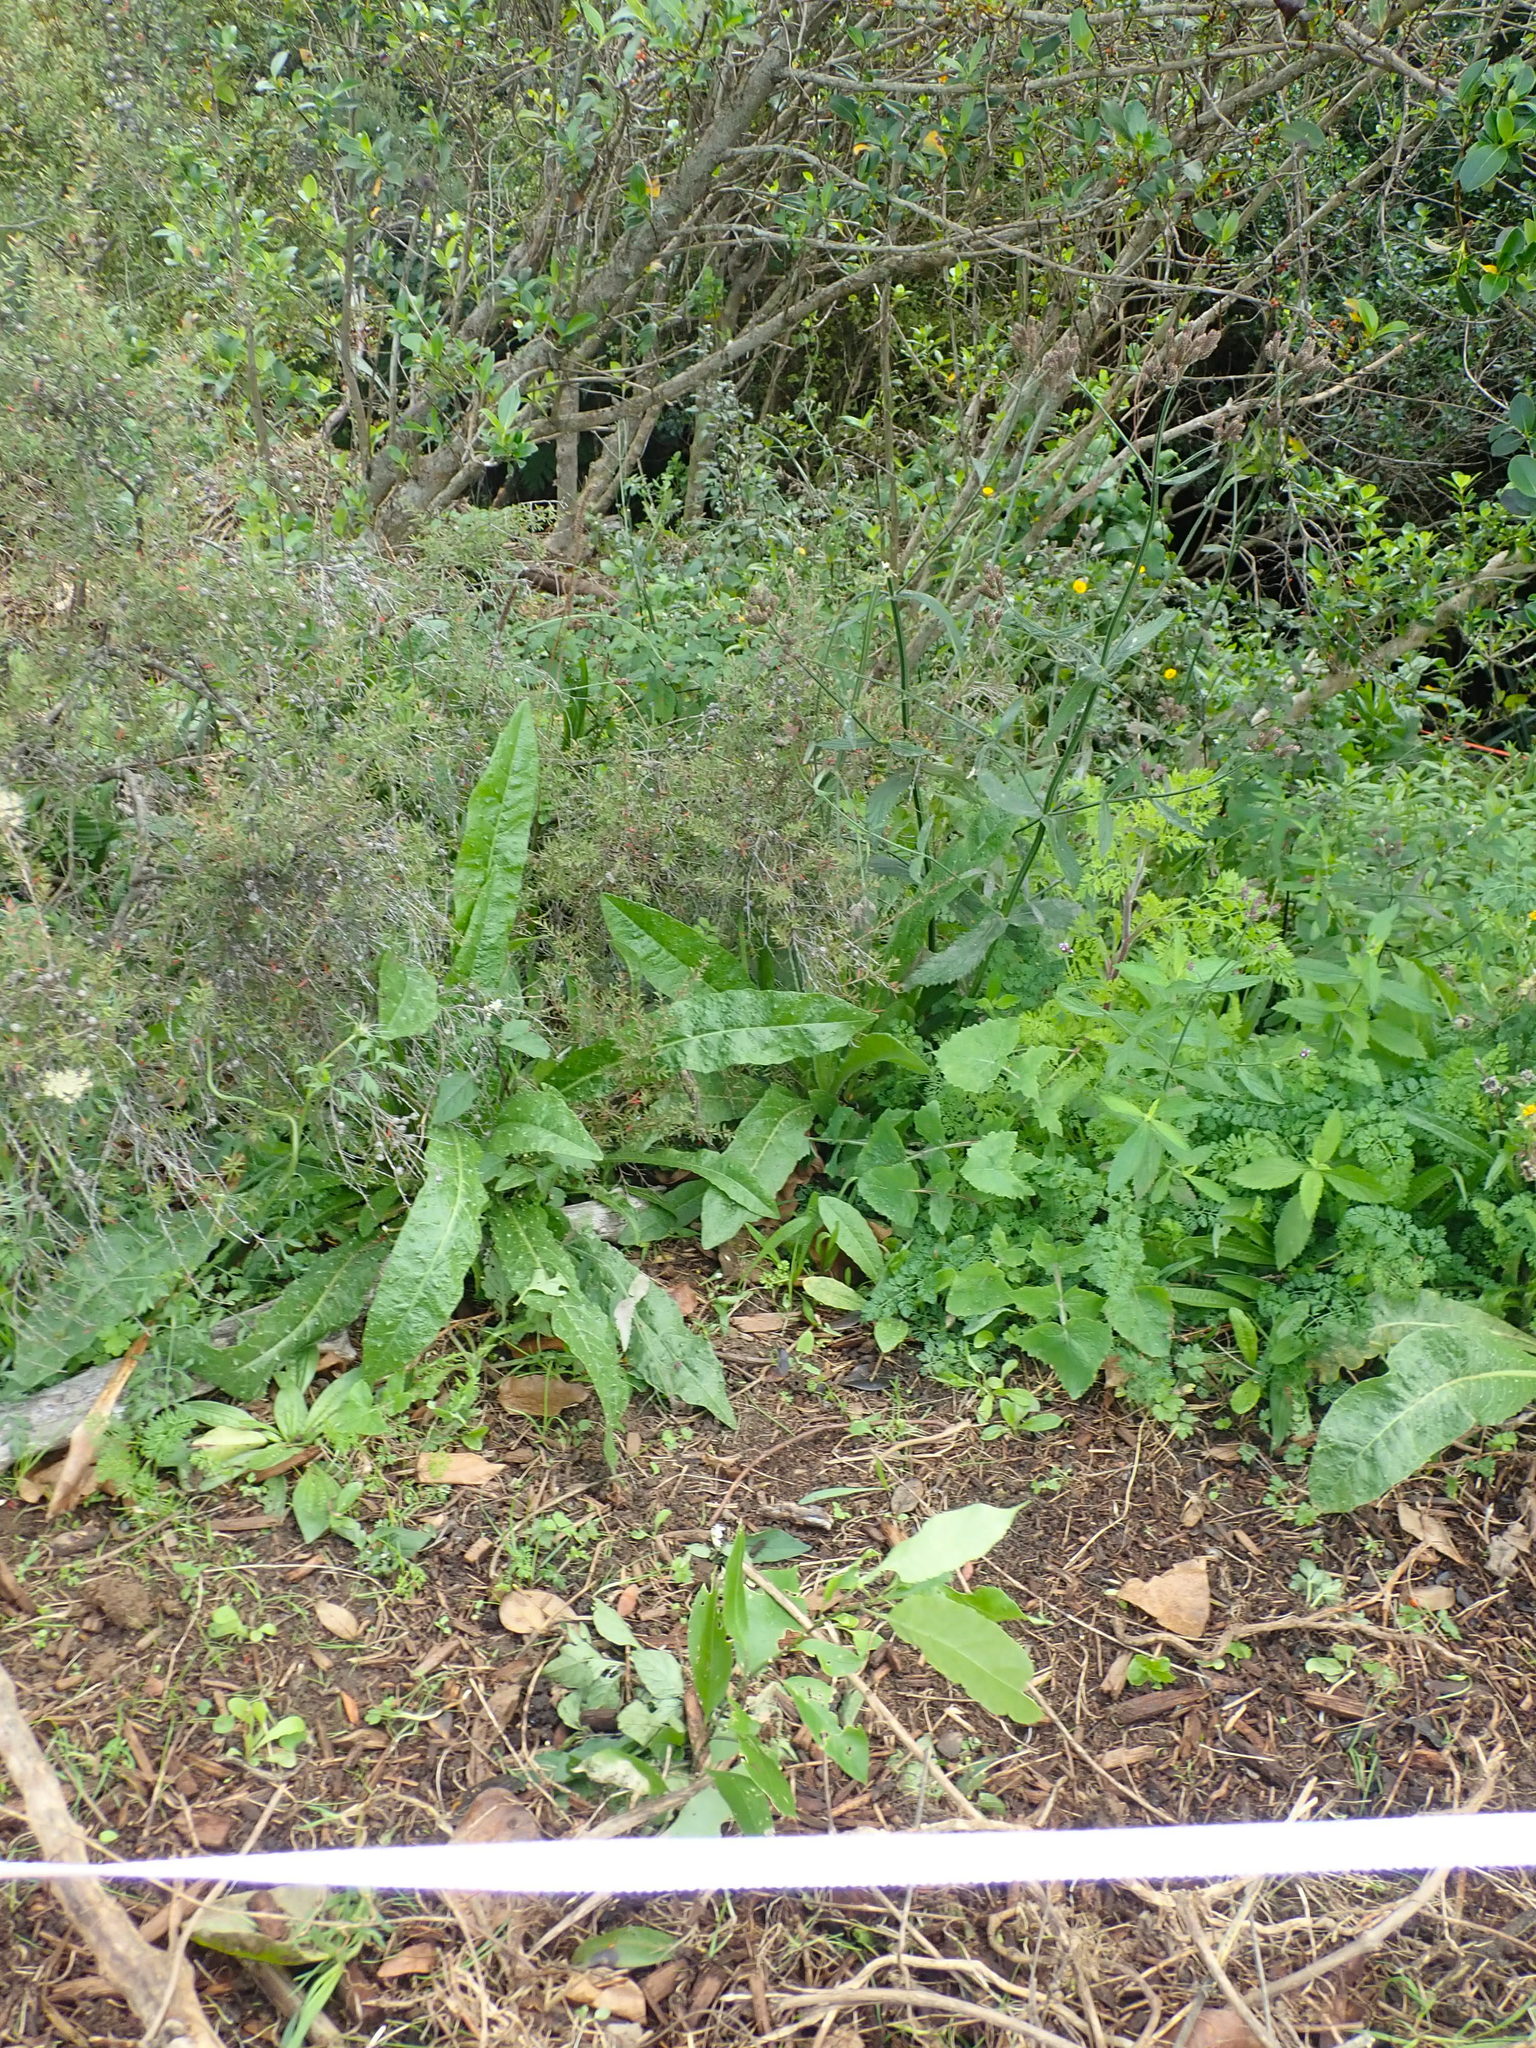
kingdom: Plantae
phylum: Tracheophyta
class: Magnoliopsida
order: Asterales
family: Asteraceae
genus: Helminthotheca
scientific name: Helminthotheca echioides
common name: Ox-tongue
